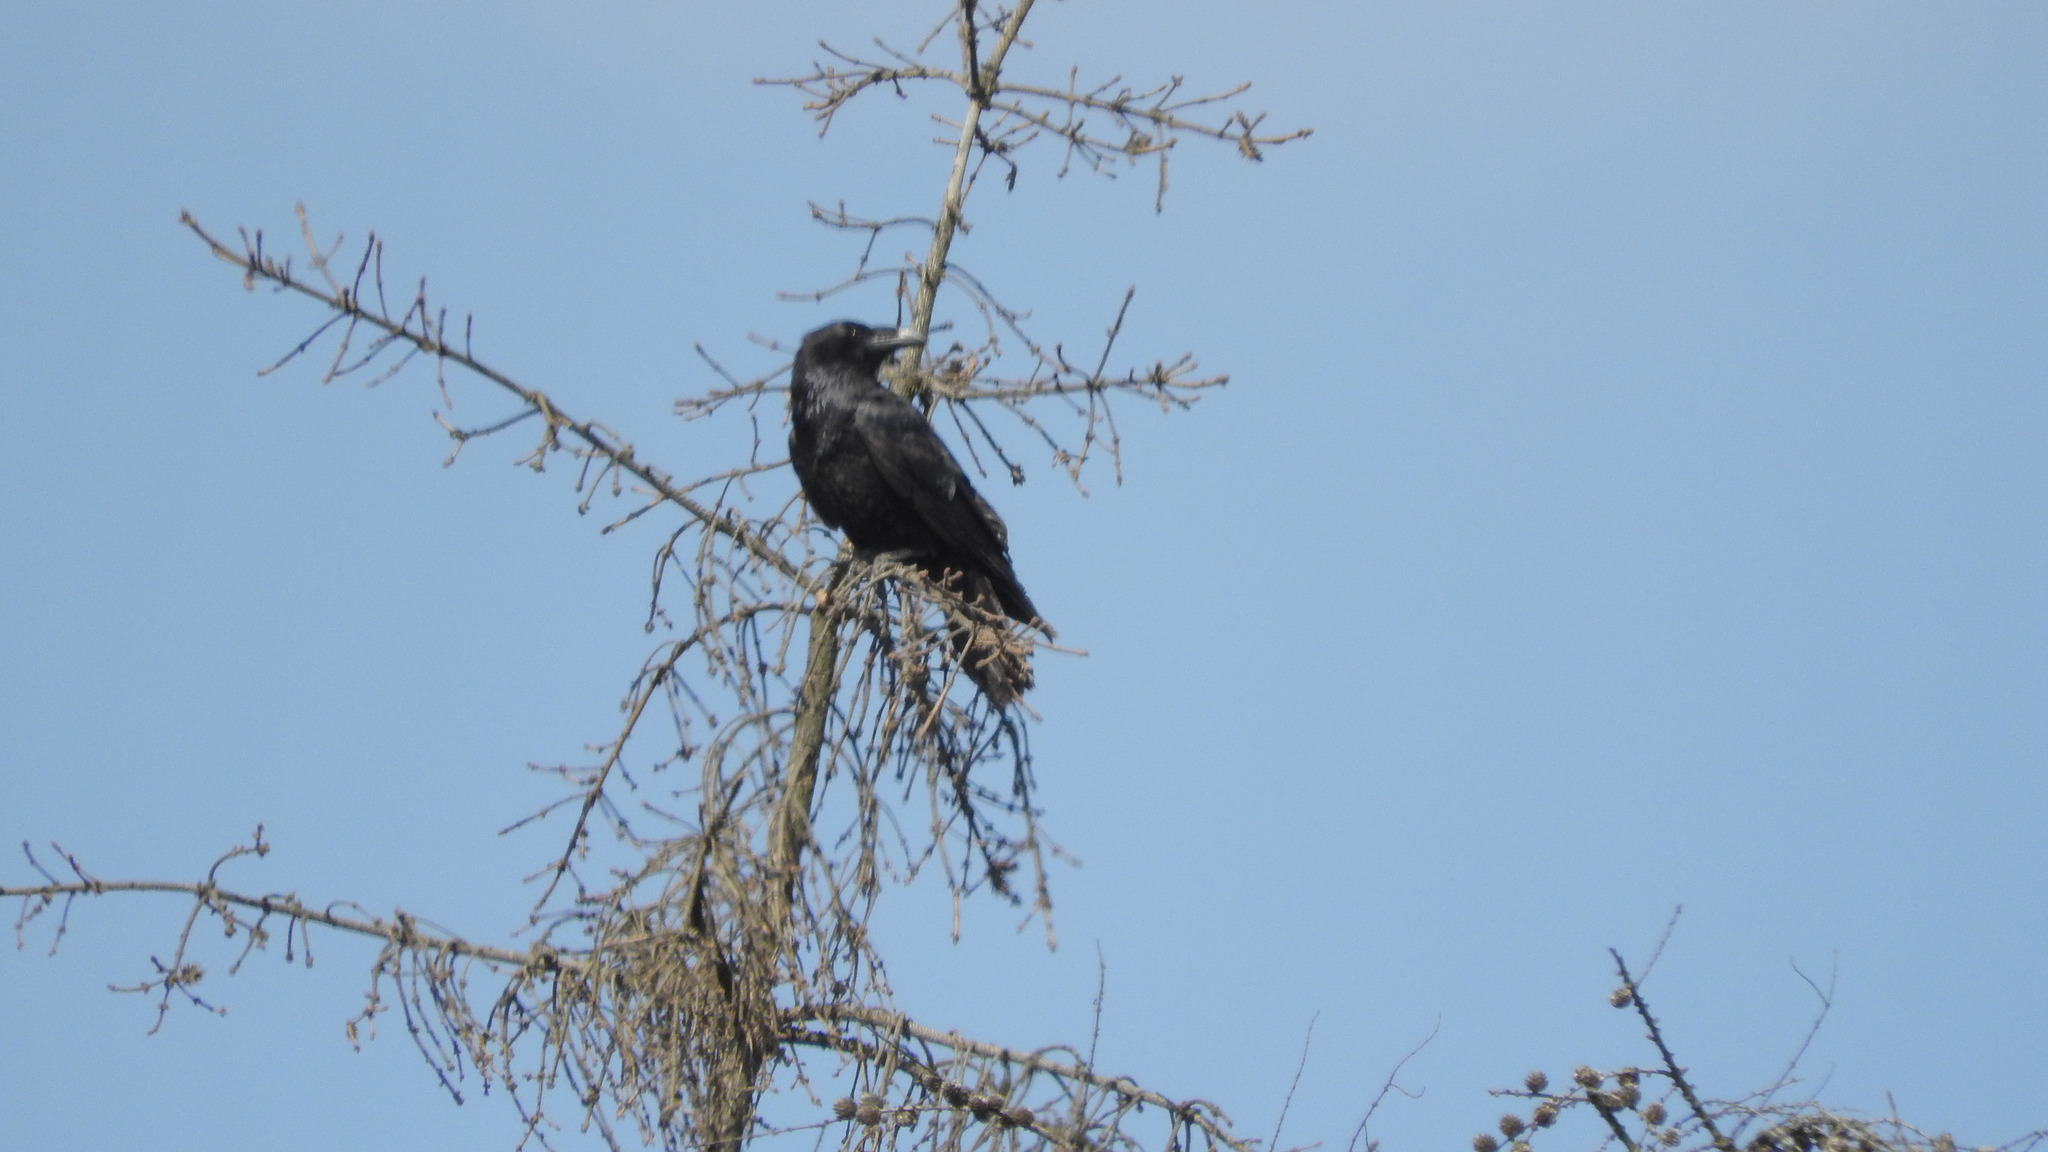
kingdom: Animalia
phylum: Chordata
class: Aves
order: Passeriformes
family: Corvidae
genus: Corvus
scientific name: Corvus corax
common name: Common raven
